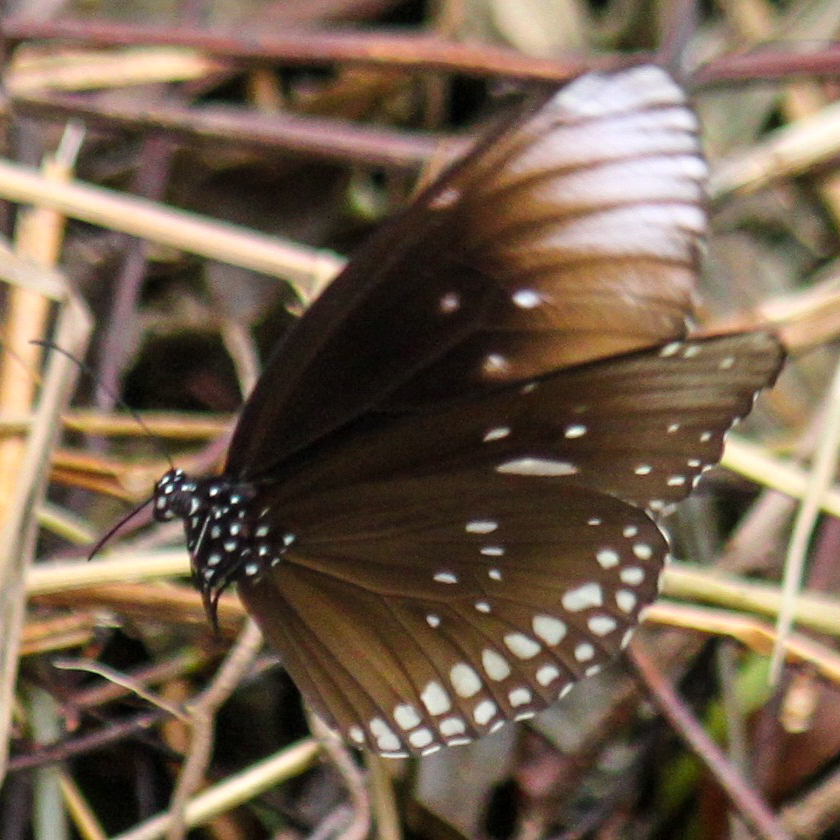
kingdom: Animalia
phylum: Arthropoda
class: Insecta
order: Lepidoptera
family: Nymphalidae
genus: Euploea
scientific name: Euploea core
